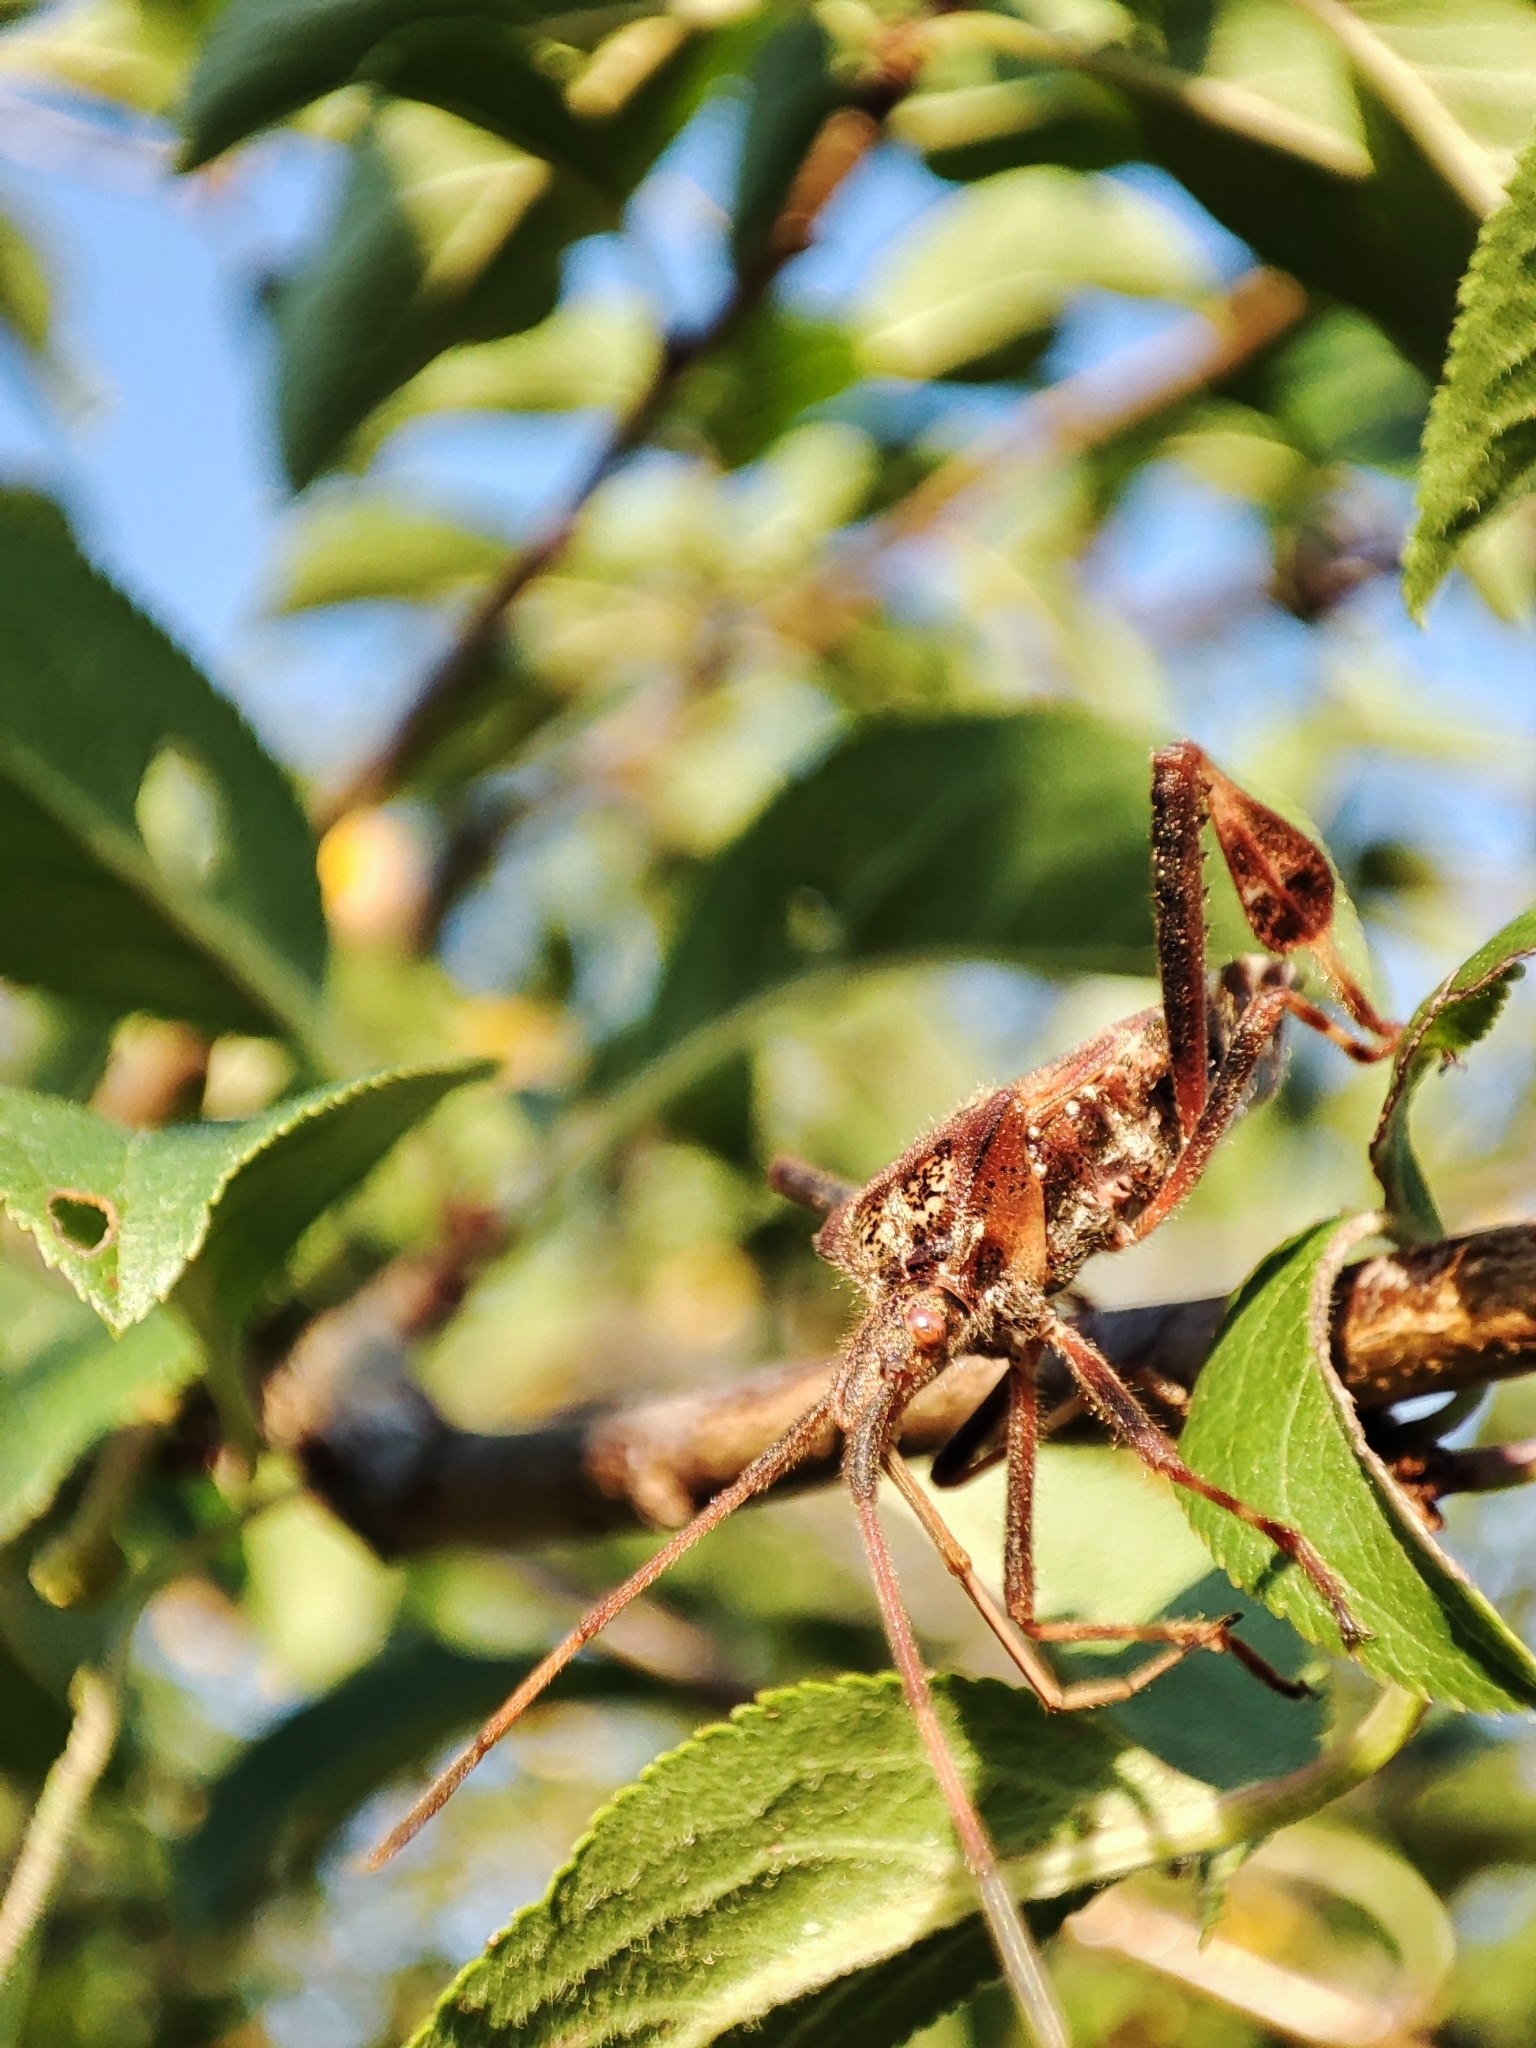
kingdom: Animalia
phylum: Arthropoda
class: Insecta
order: Hemiptera
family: Coreidae
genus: Leptoglossus
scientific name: Leptoglossus occidentalis
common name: Western conifer-seed bug
